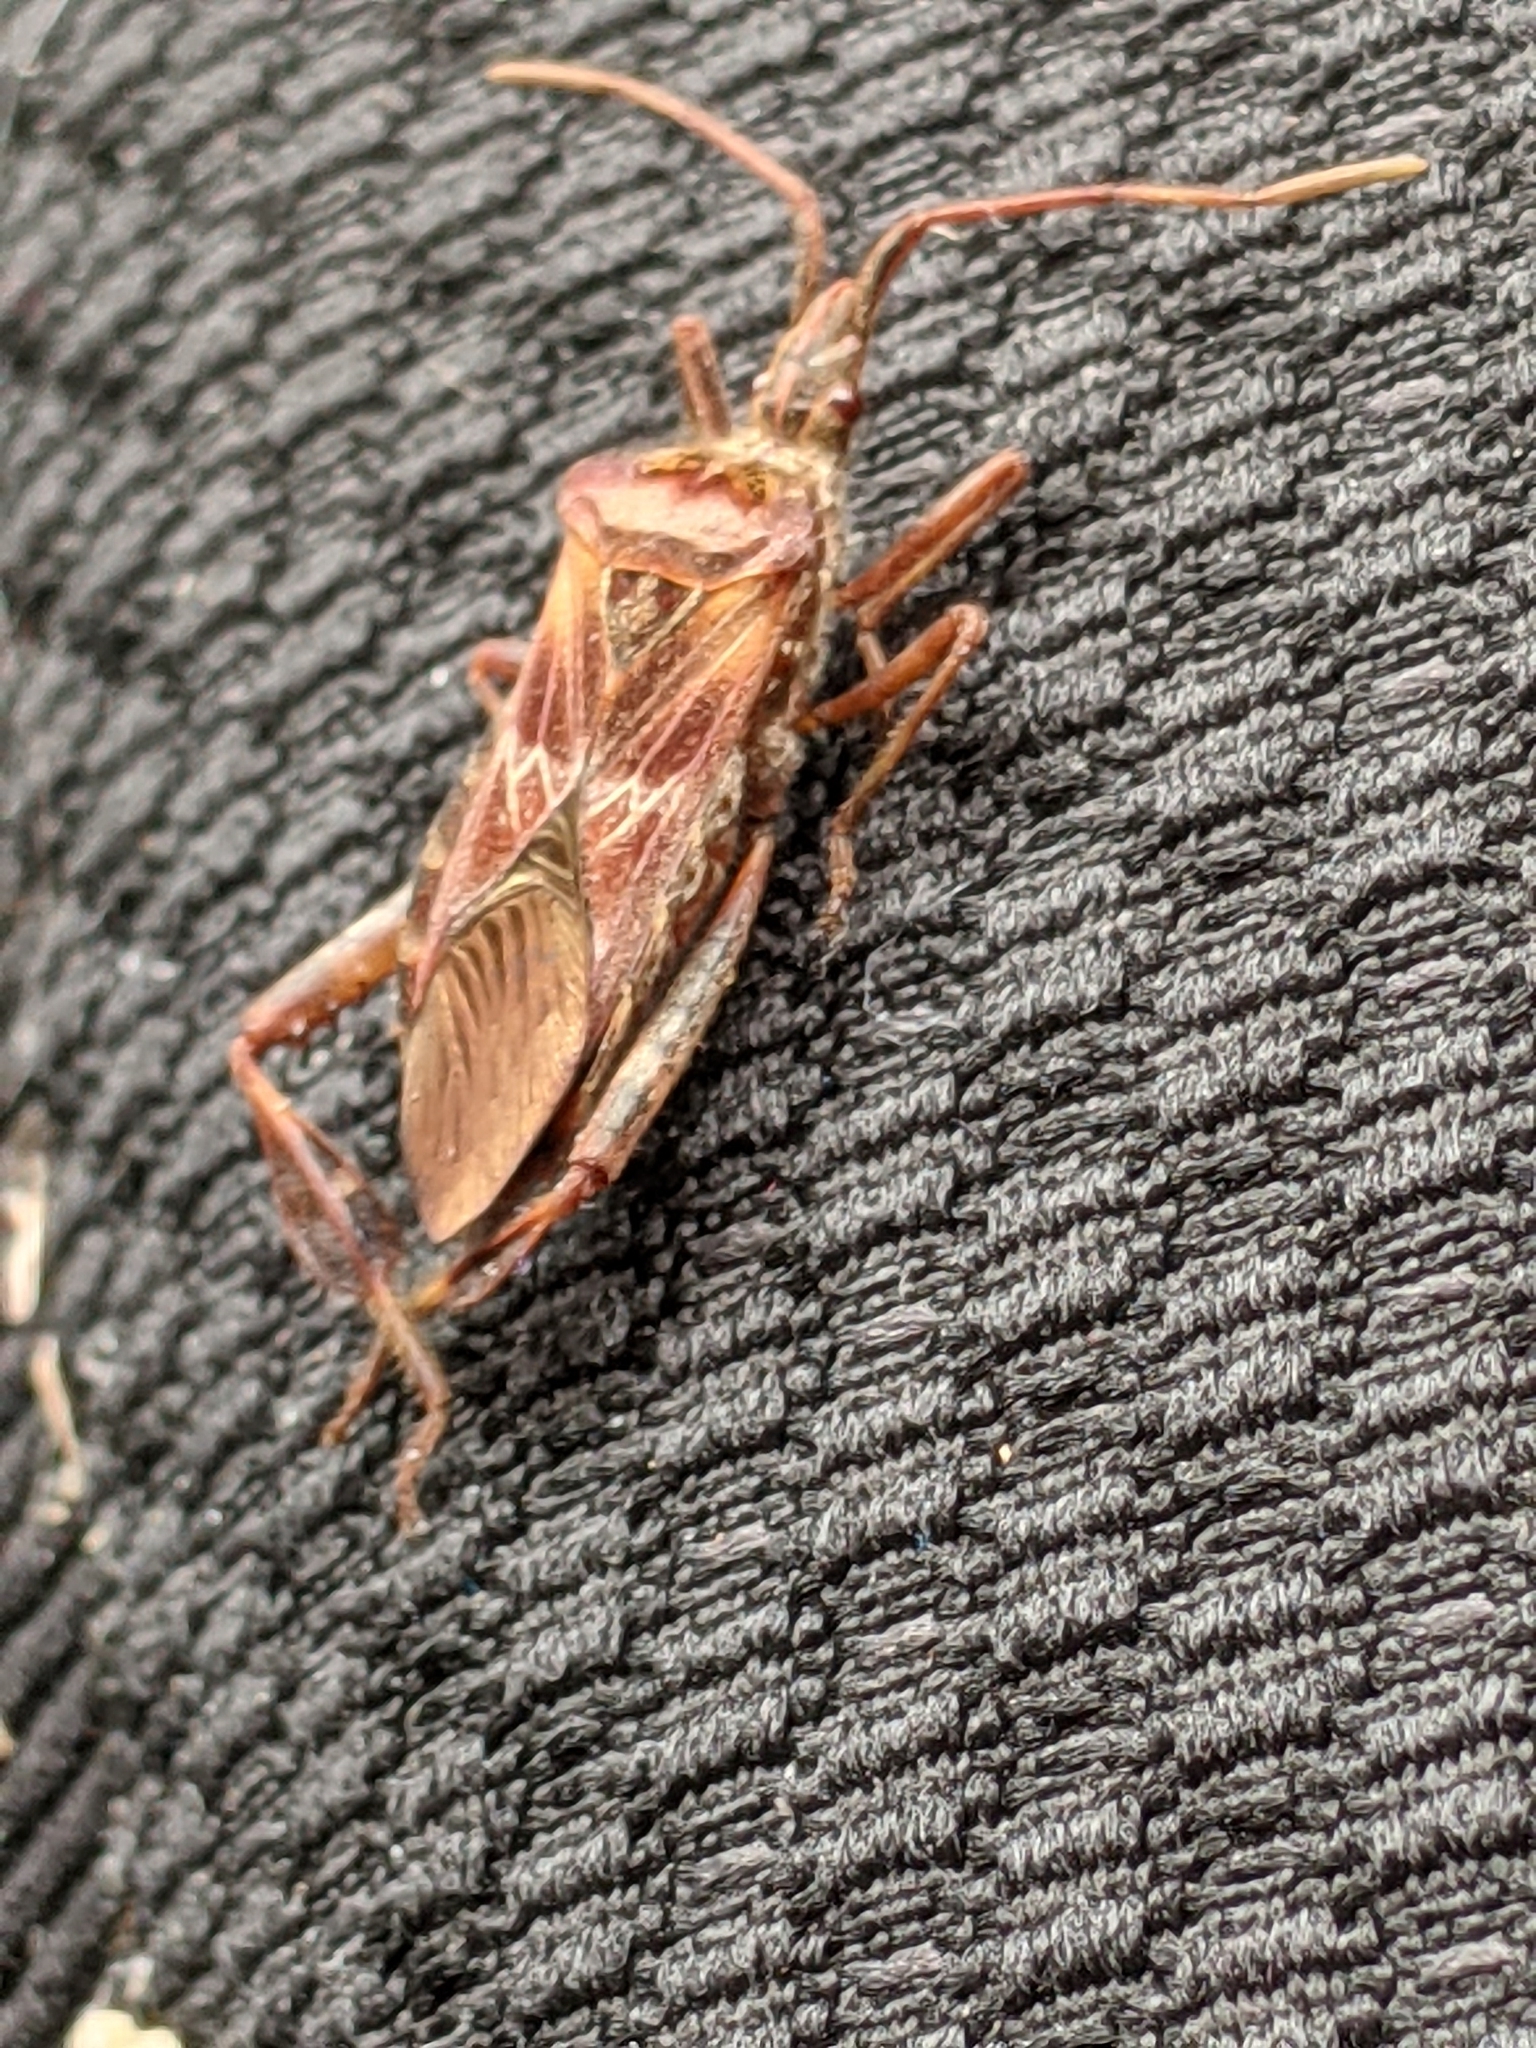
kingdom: Animalia
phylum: Arthropoda
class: Insecta
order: Hemiptera
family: Coreidae
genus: Leptoglossus
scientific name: Leptoglossus occidentalis
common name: Western conifer-seed bug
